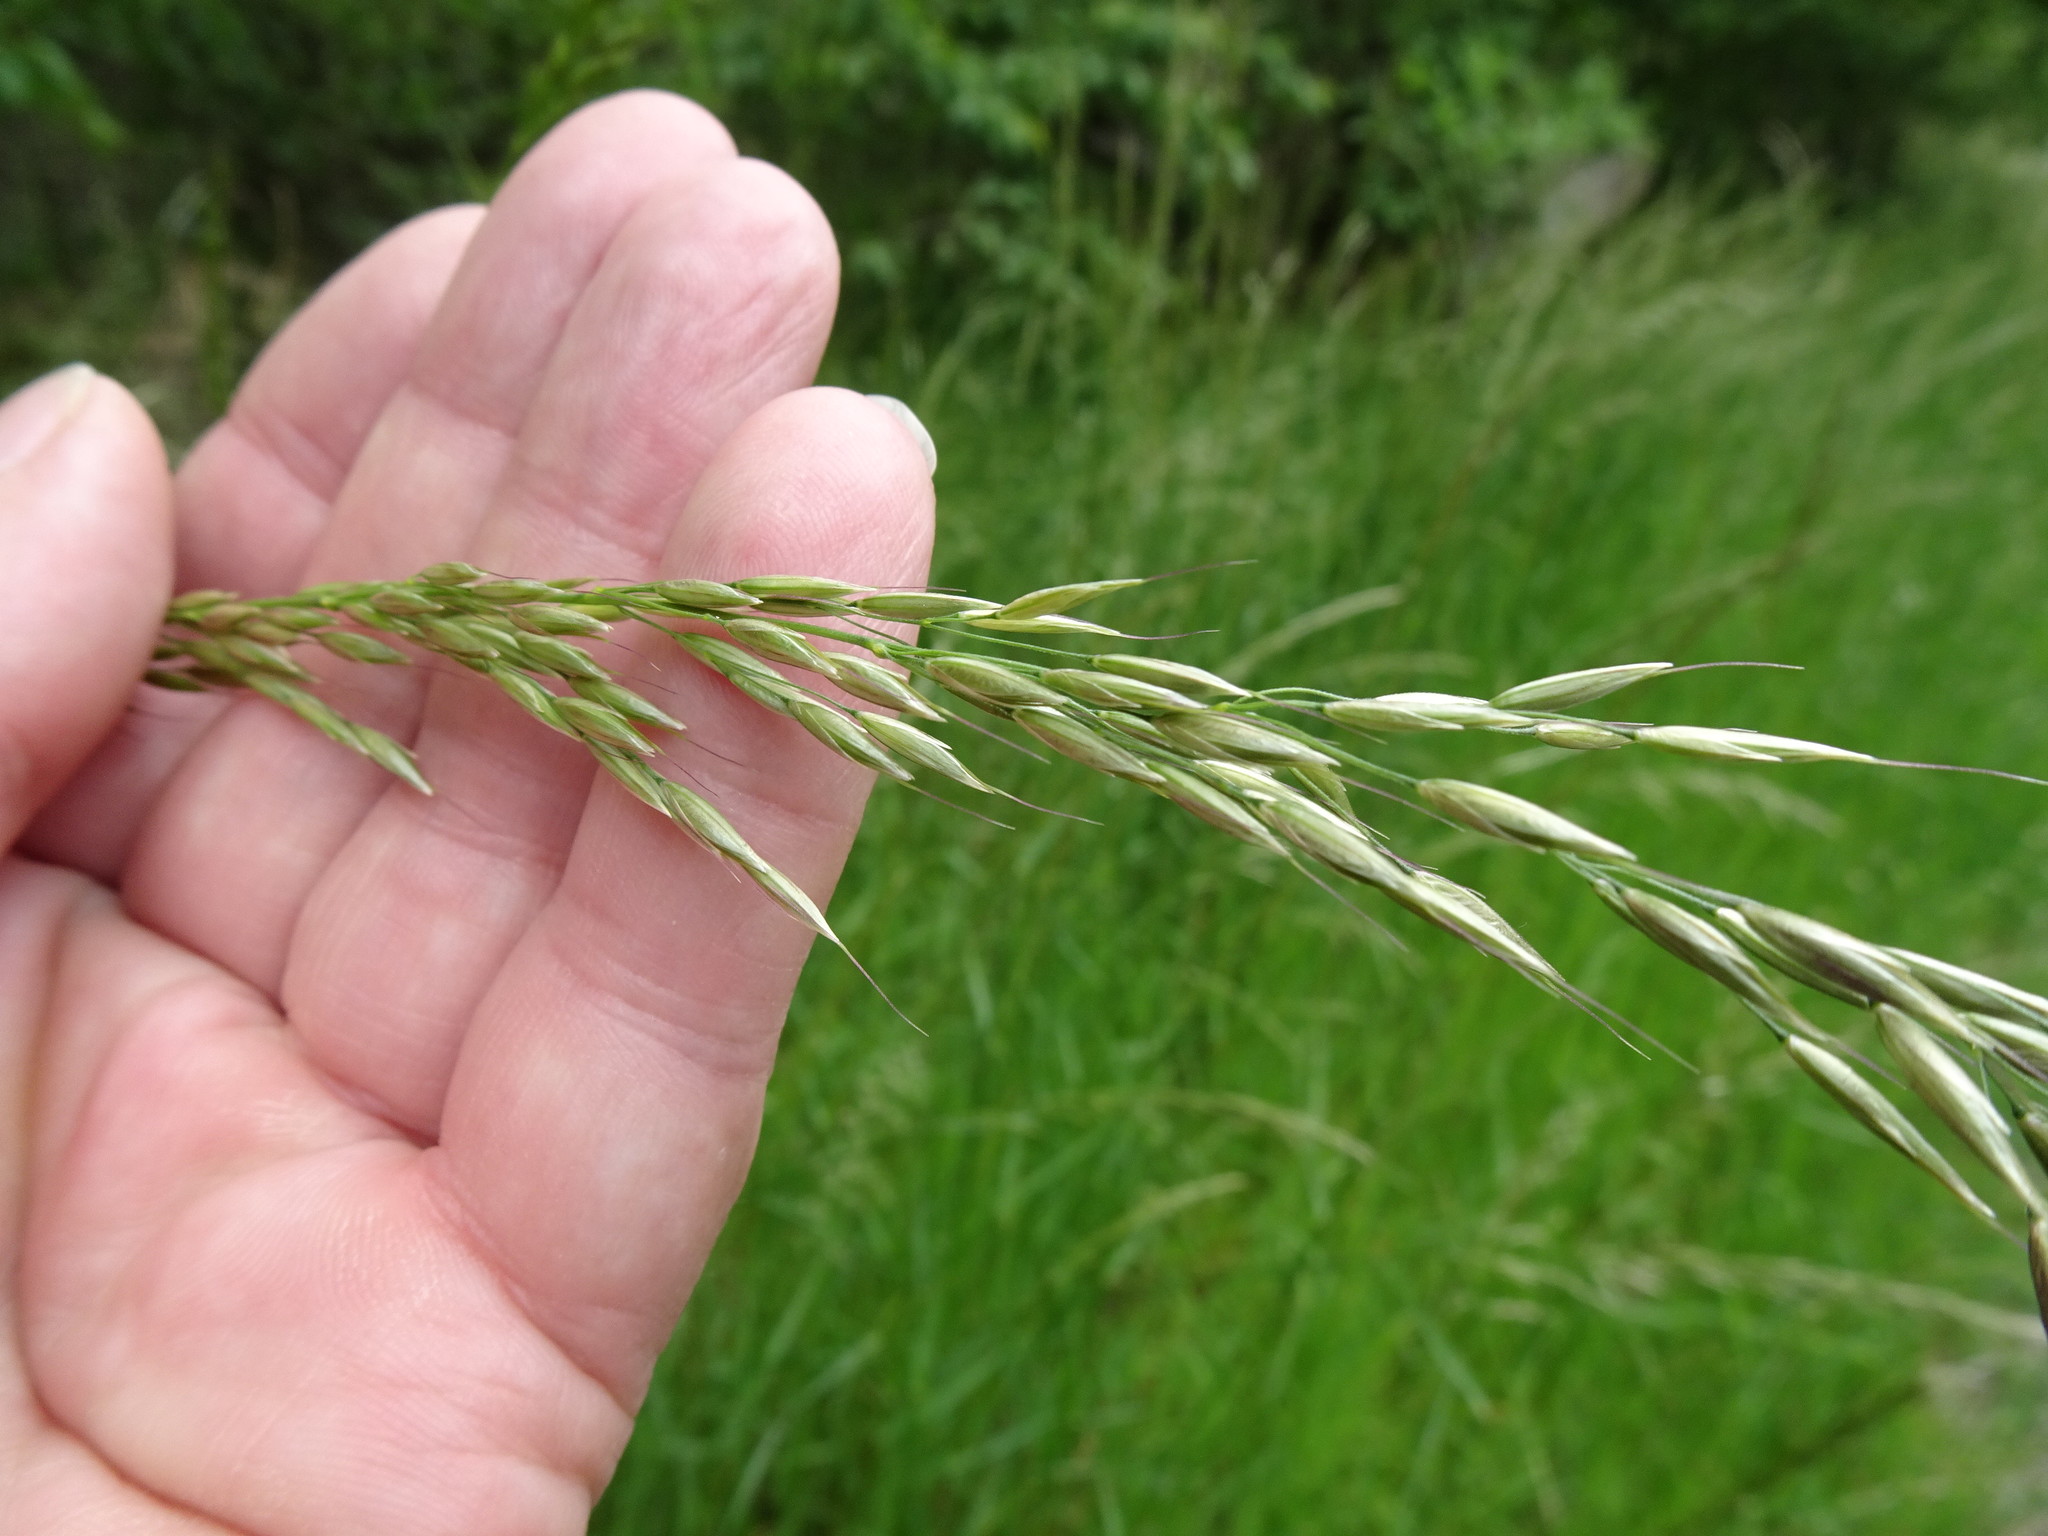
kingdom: Plantae
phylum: Tracheophyta
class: Liliopsida
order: Poales
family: Poaceae
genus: Arrhenatherum
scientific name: Arrhenatherum elatius
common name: Tall oatgrass
